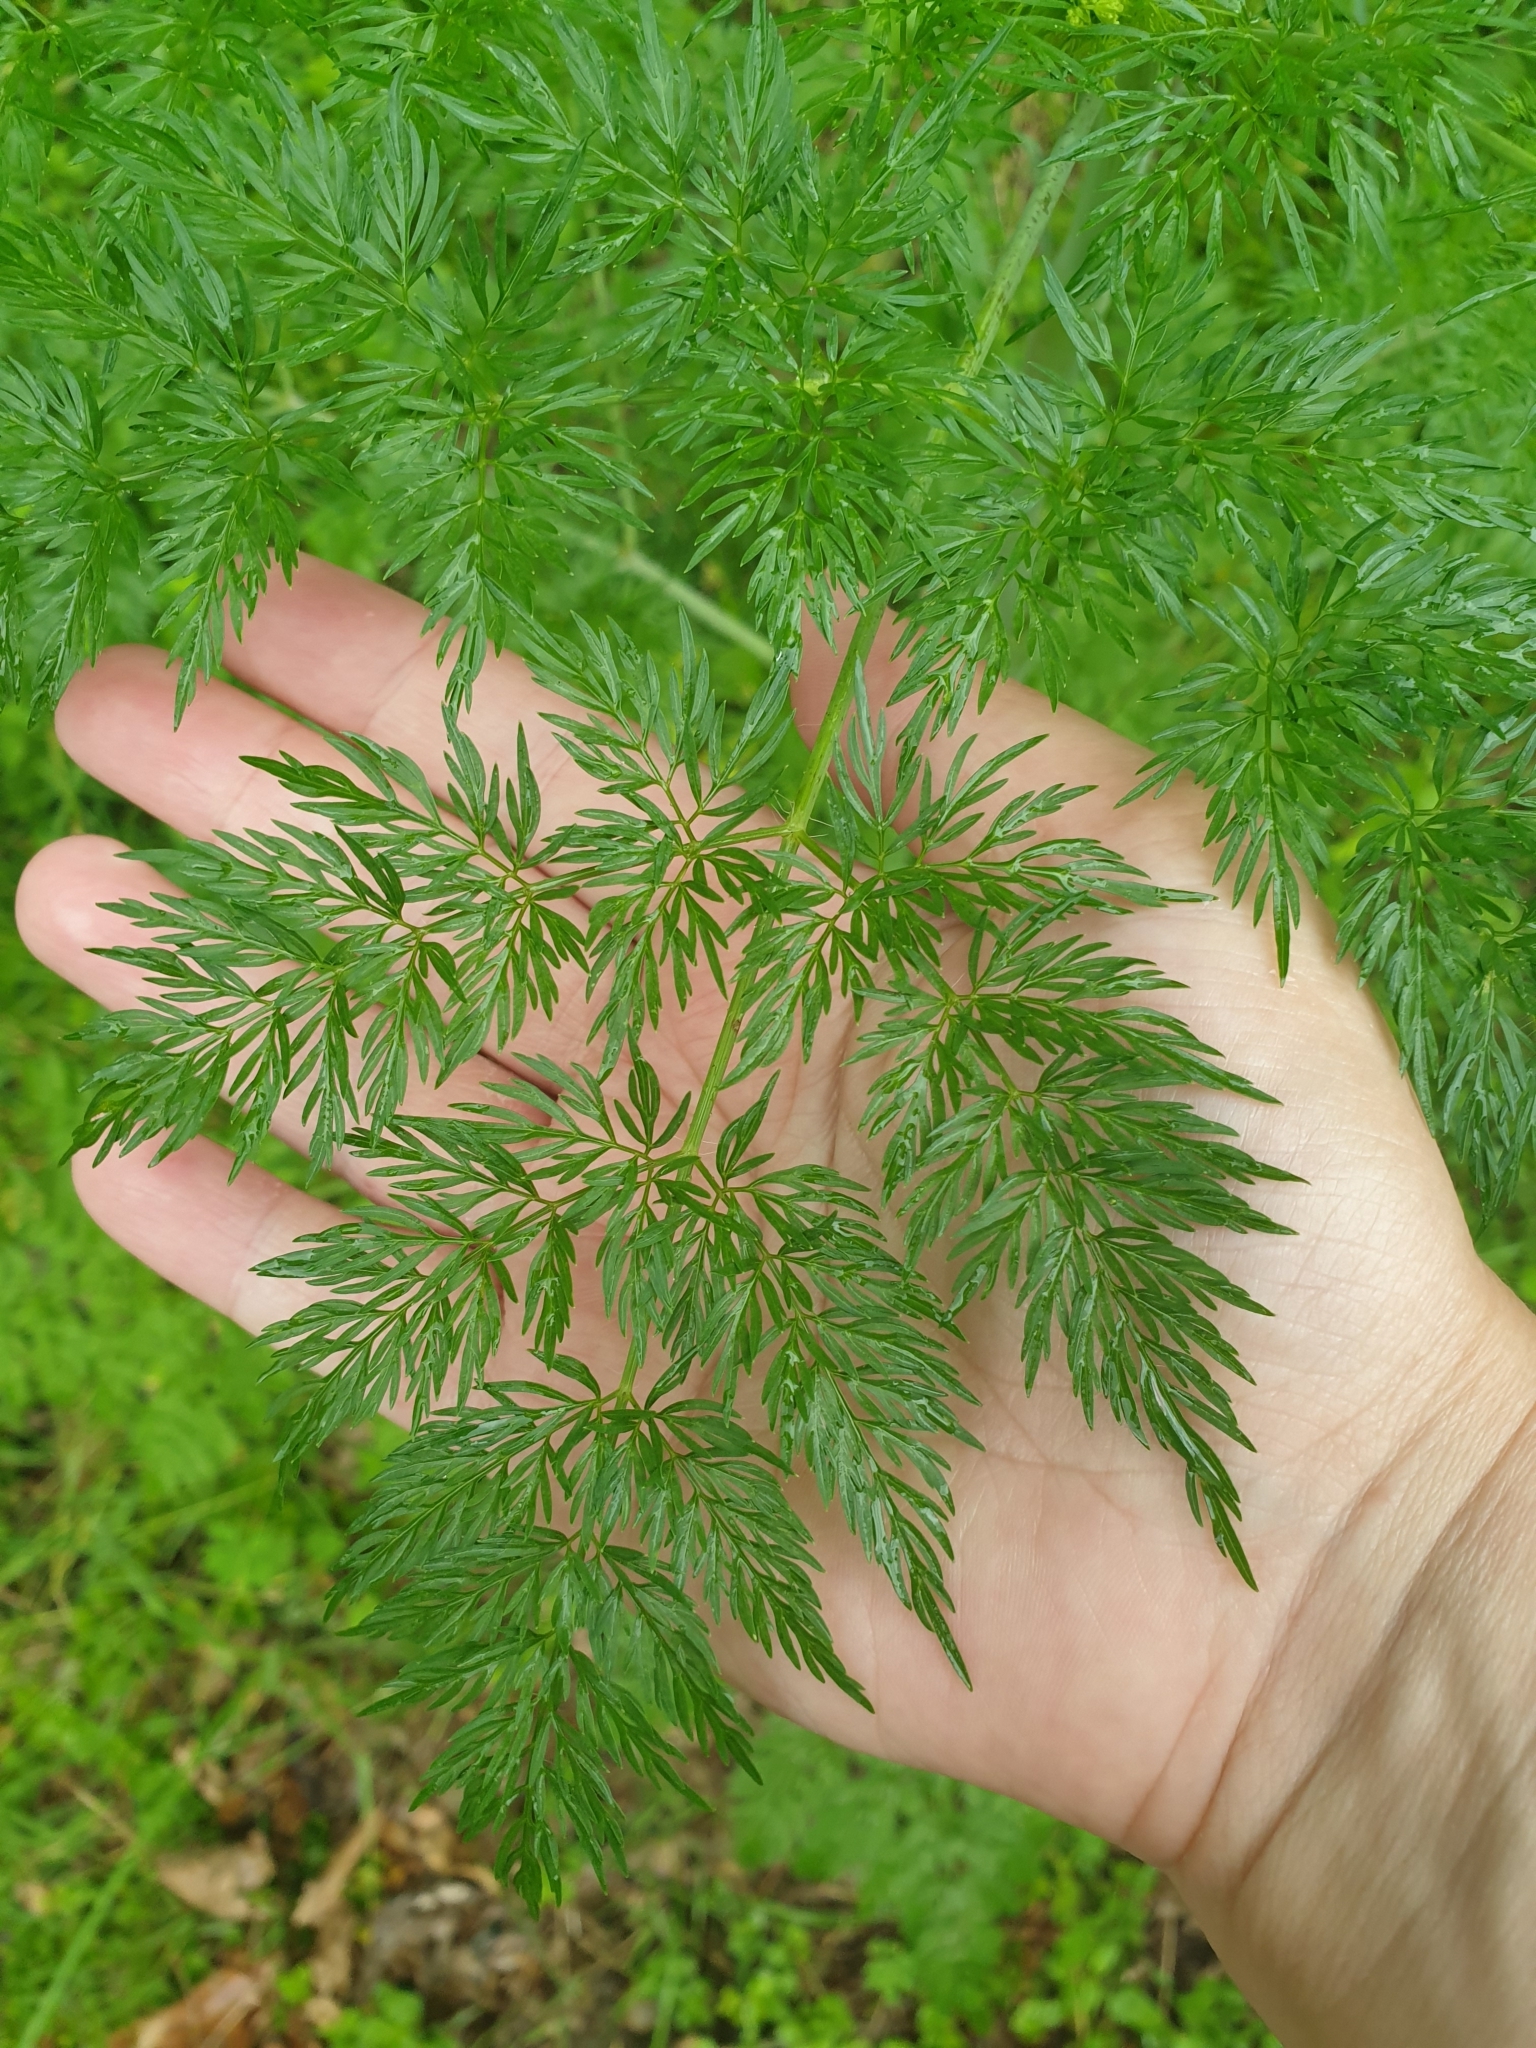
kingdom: Plantae
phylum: Tracheophyta
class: Magnoliopsida
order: Apiales
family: Apiaceae
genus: Conium
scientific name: Conium maculatum
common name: Hemlock
